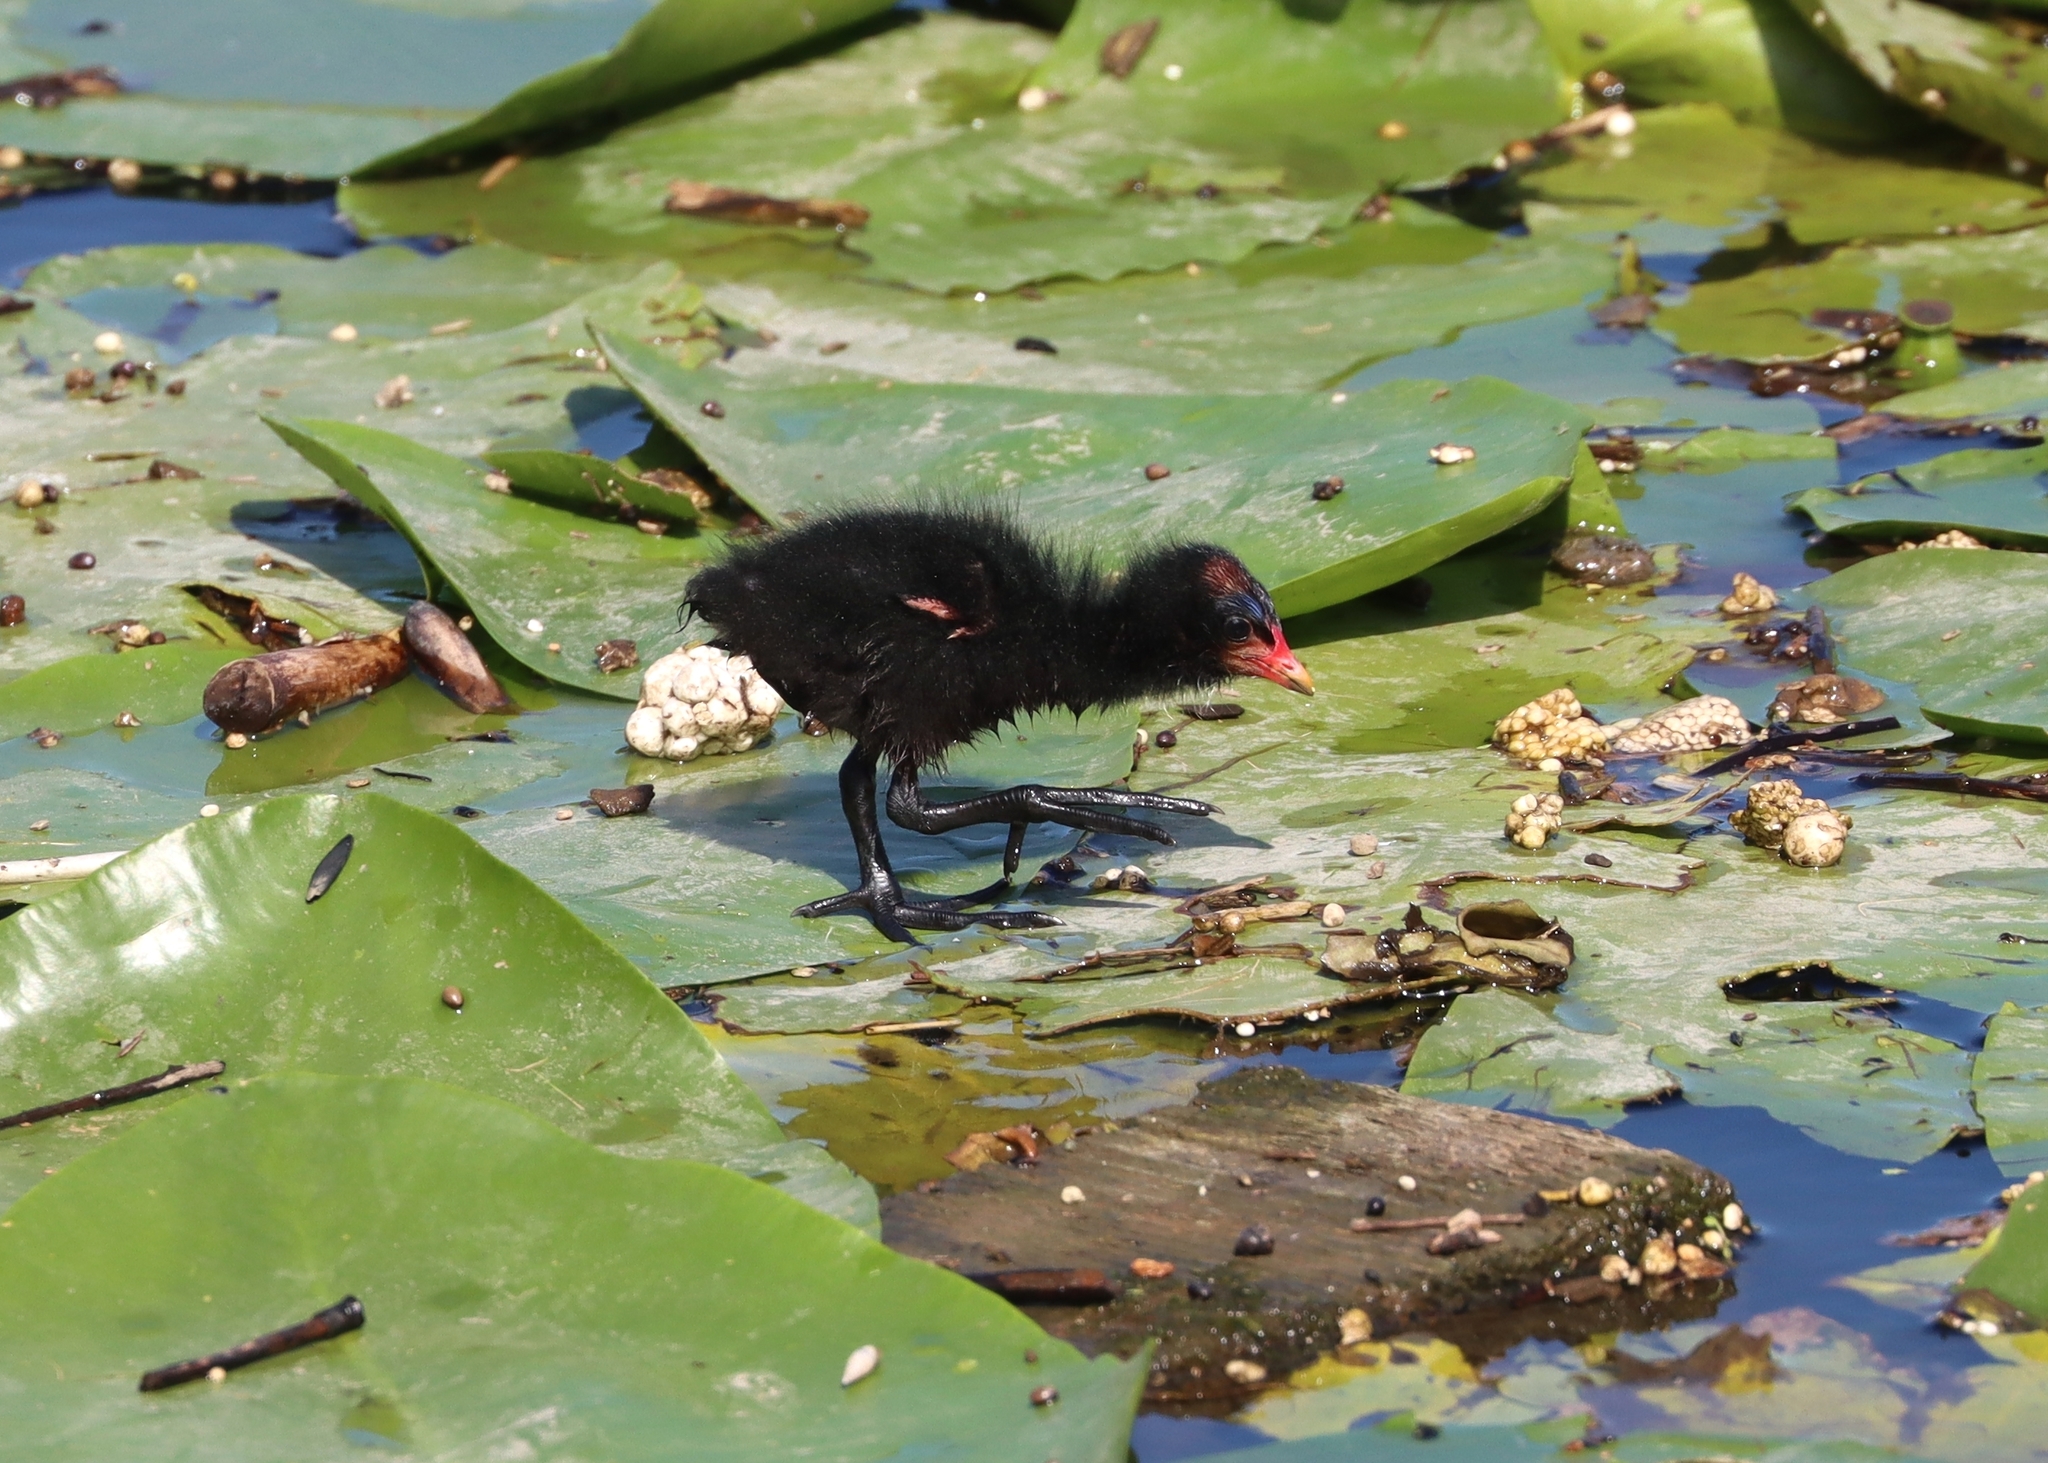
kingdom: Animalia
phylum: Chordata
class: Aves
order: Gruiformes
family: Rallidae
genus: Gallinula
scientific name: Gallinula chloropus
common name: Common moorhen
